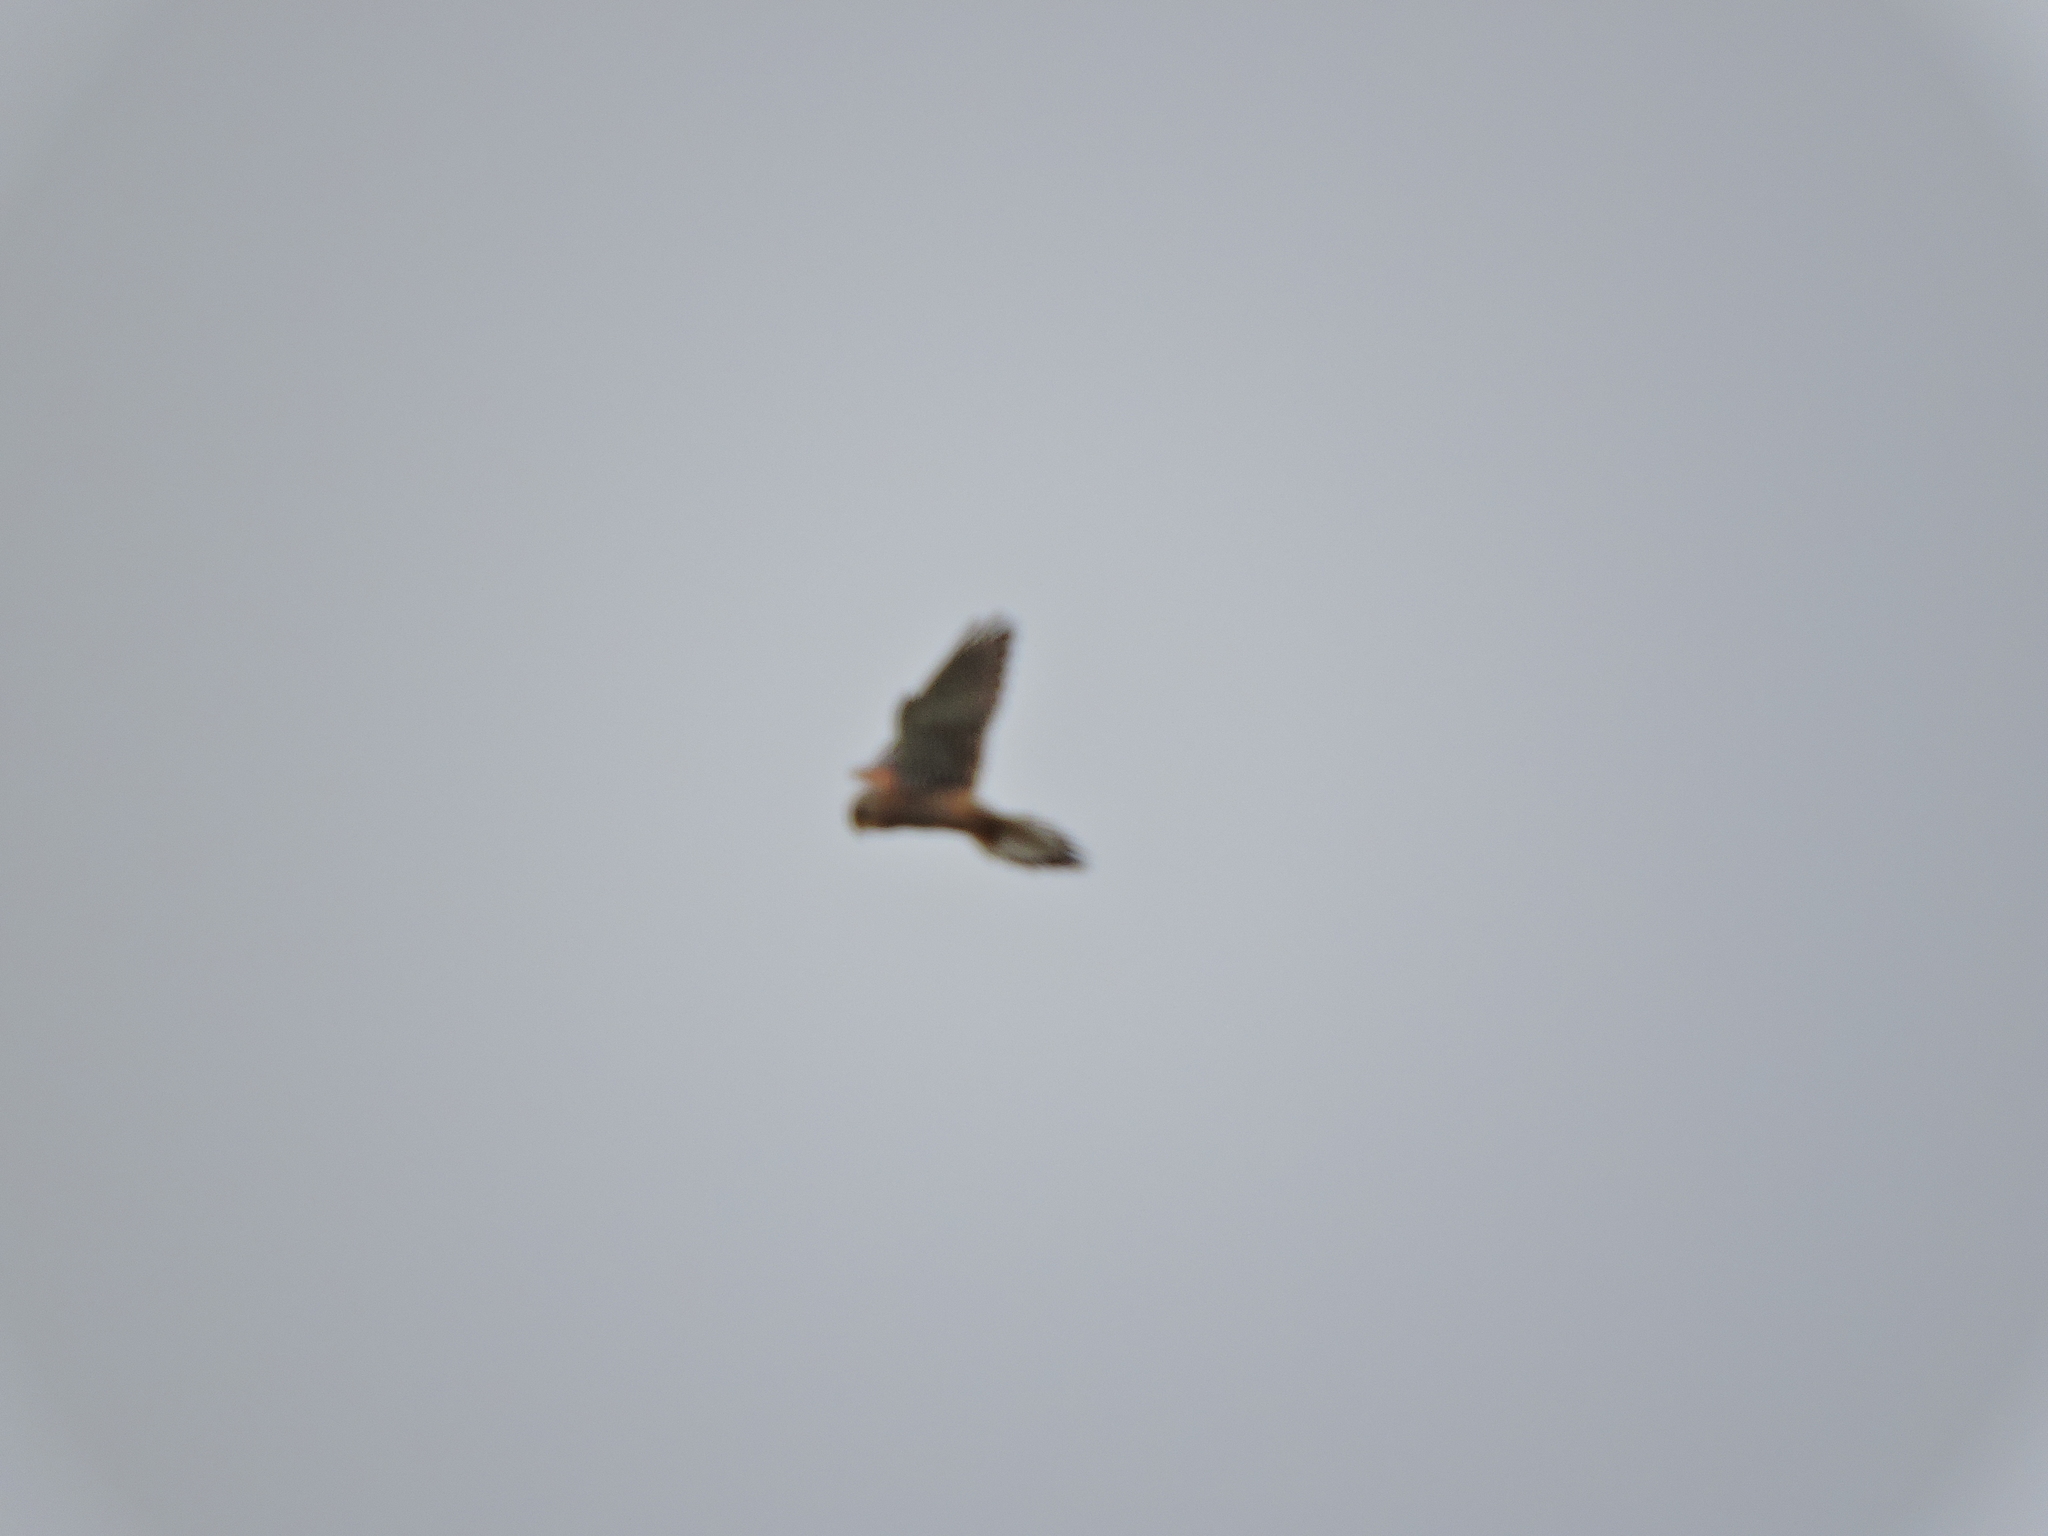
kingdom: Animalia
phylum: Chordata
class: Aves
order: Falconiformes
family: Falconidae
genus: Falco
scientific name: Falco tinnunculus
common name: Common kestrel
